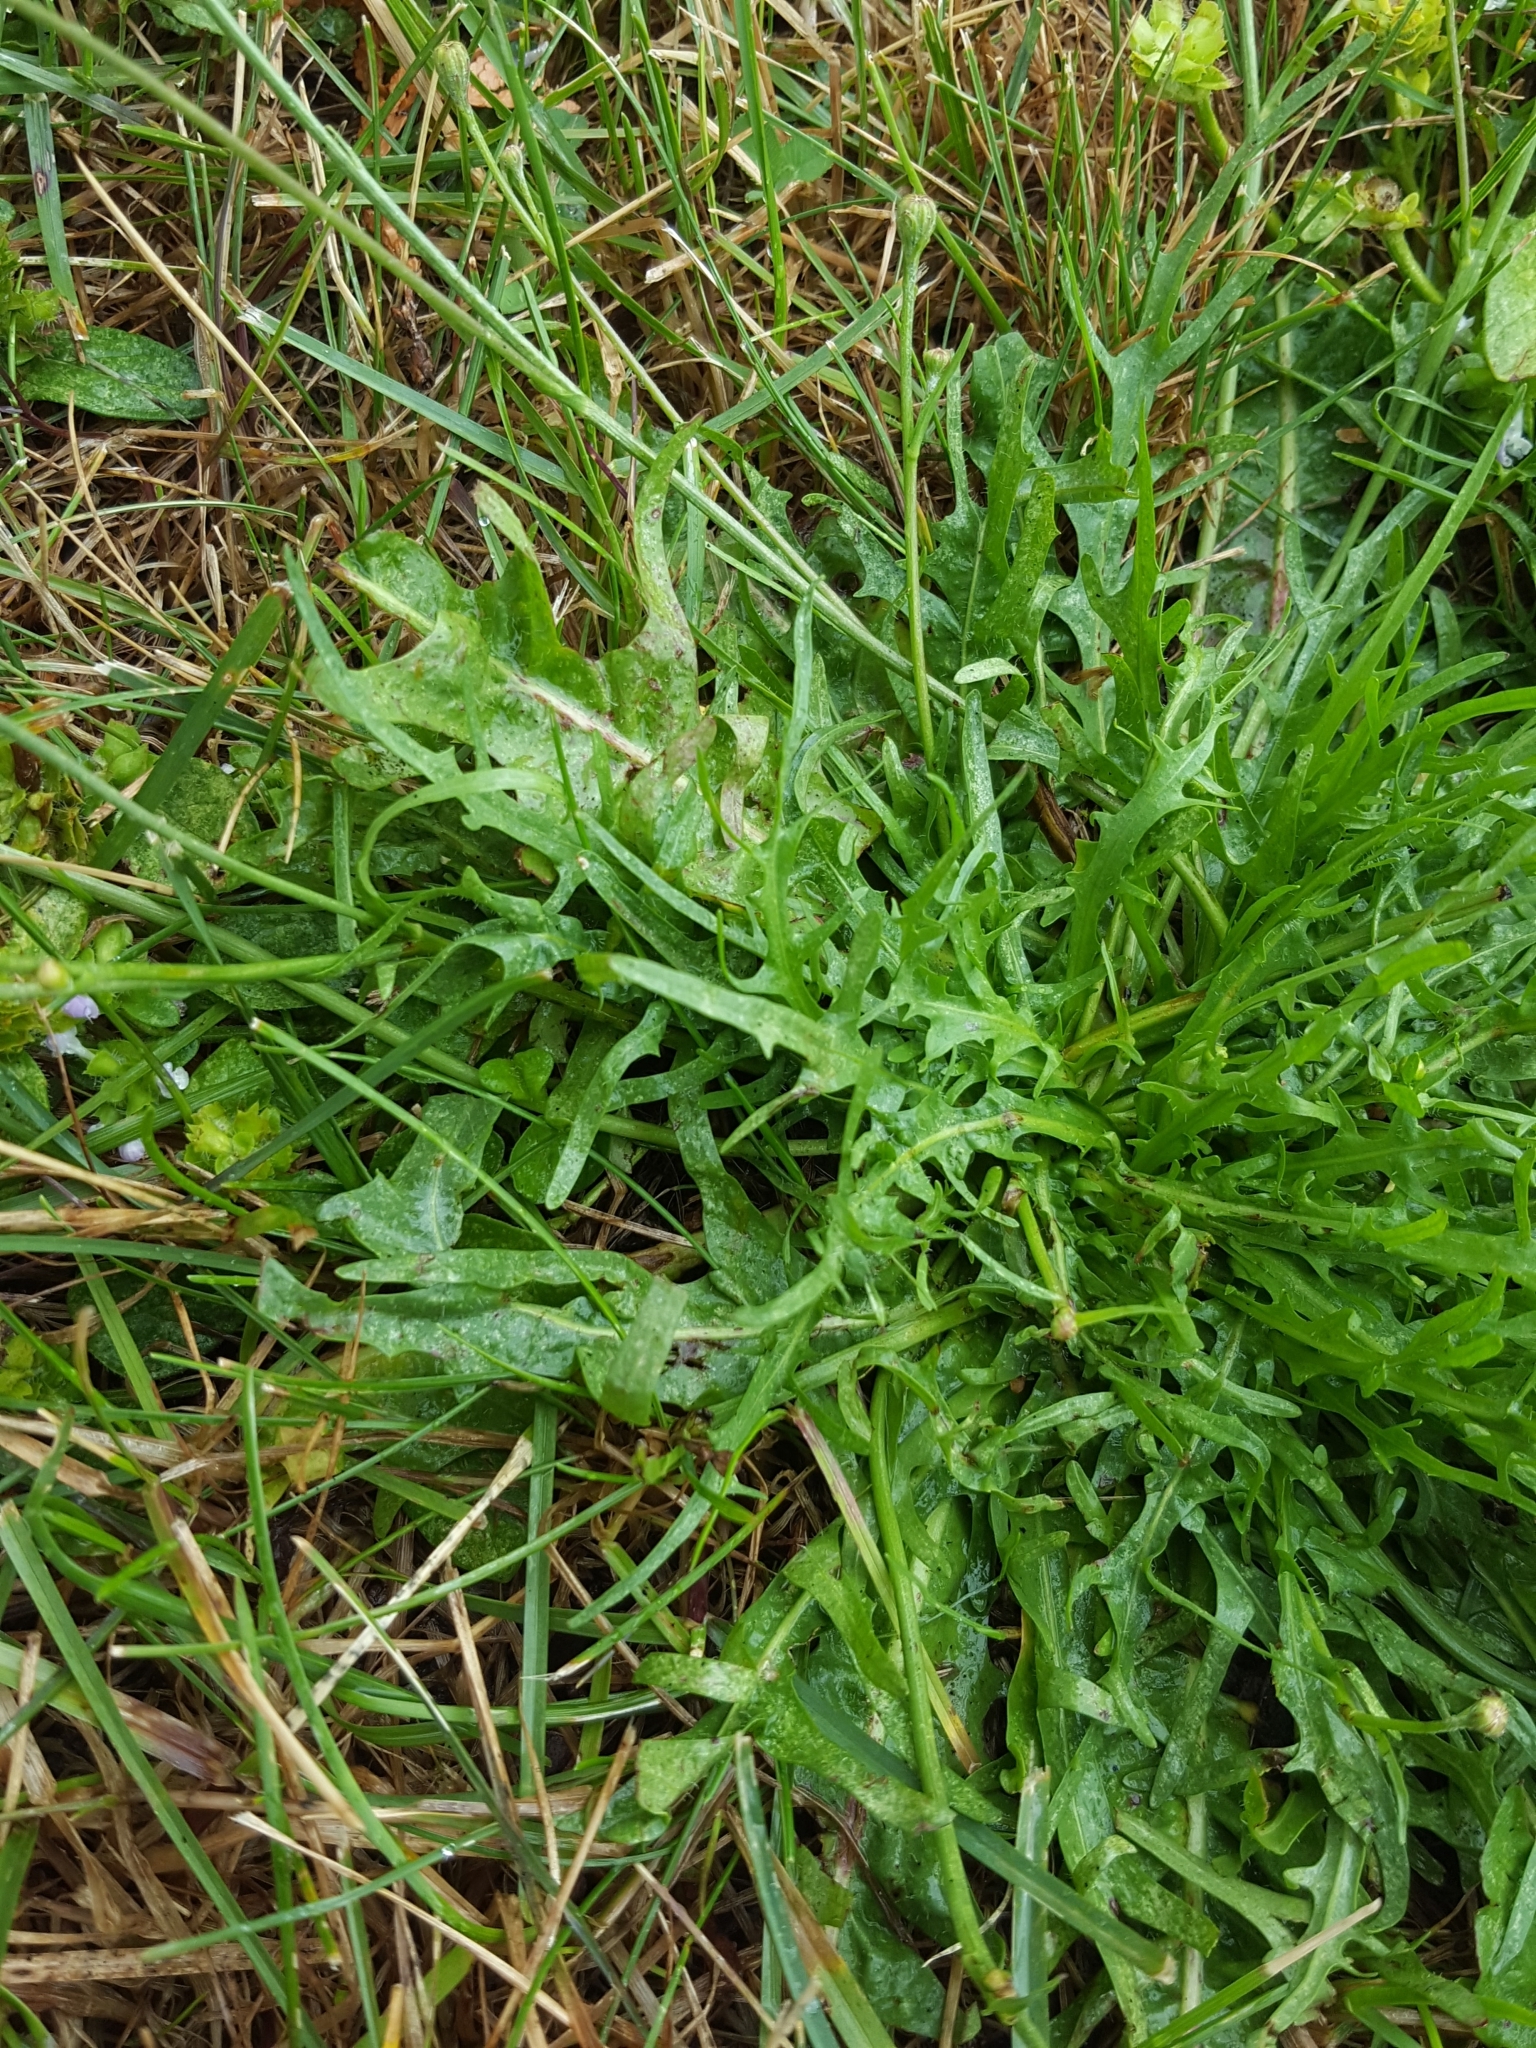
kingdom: Plantae
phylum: Tracheophyta
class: Magnoliopsida
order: Asterales
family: Asteraceae
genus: Scorzoneroides
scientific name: Scorzoneroides autumnalis
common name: Autumn hawkbit
